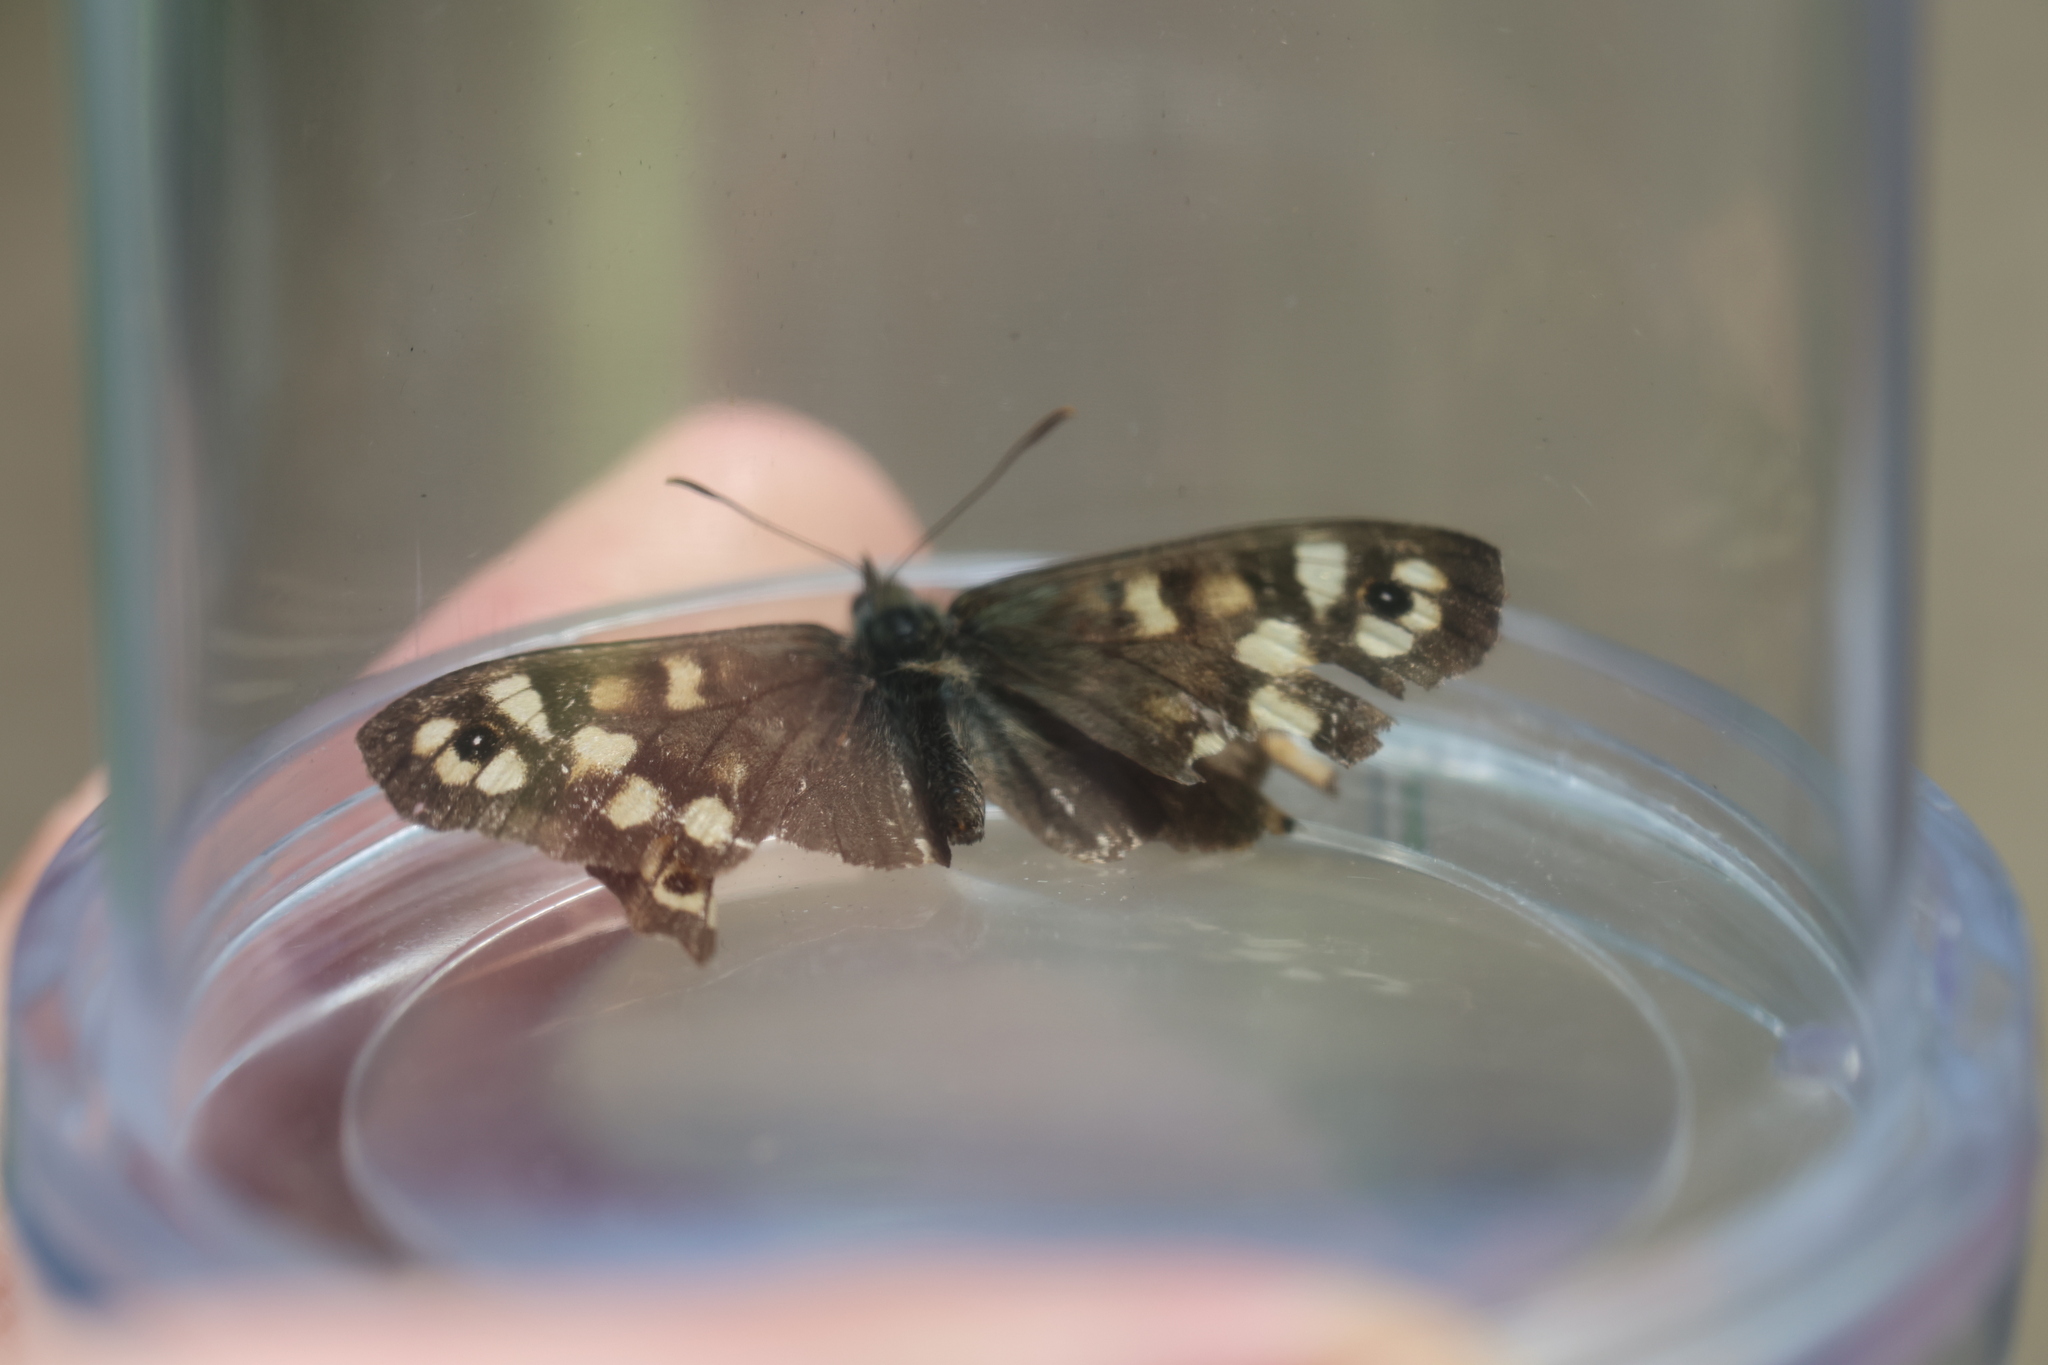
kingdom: Animalia
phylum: Arthropoda
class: Insecta
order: Lepidoptera
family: Nymphalidae
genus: Pararge
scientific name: Pararge aegeria
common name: Speckled wood
